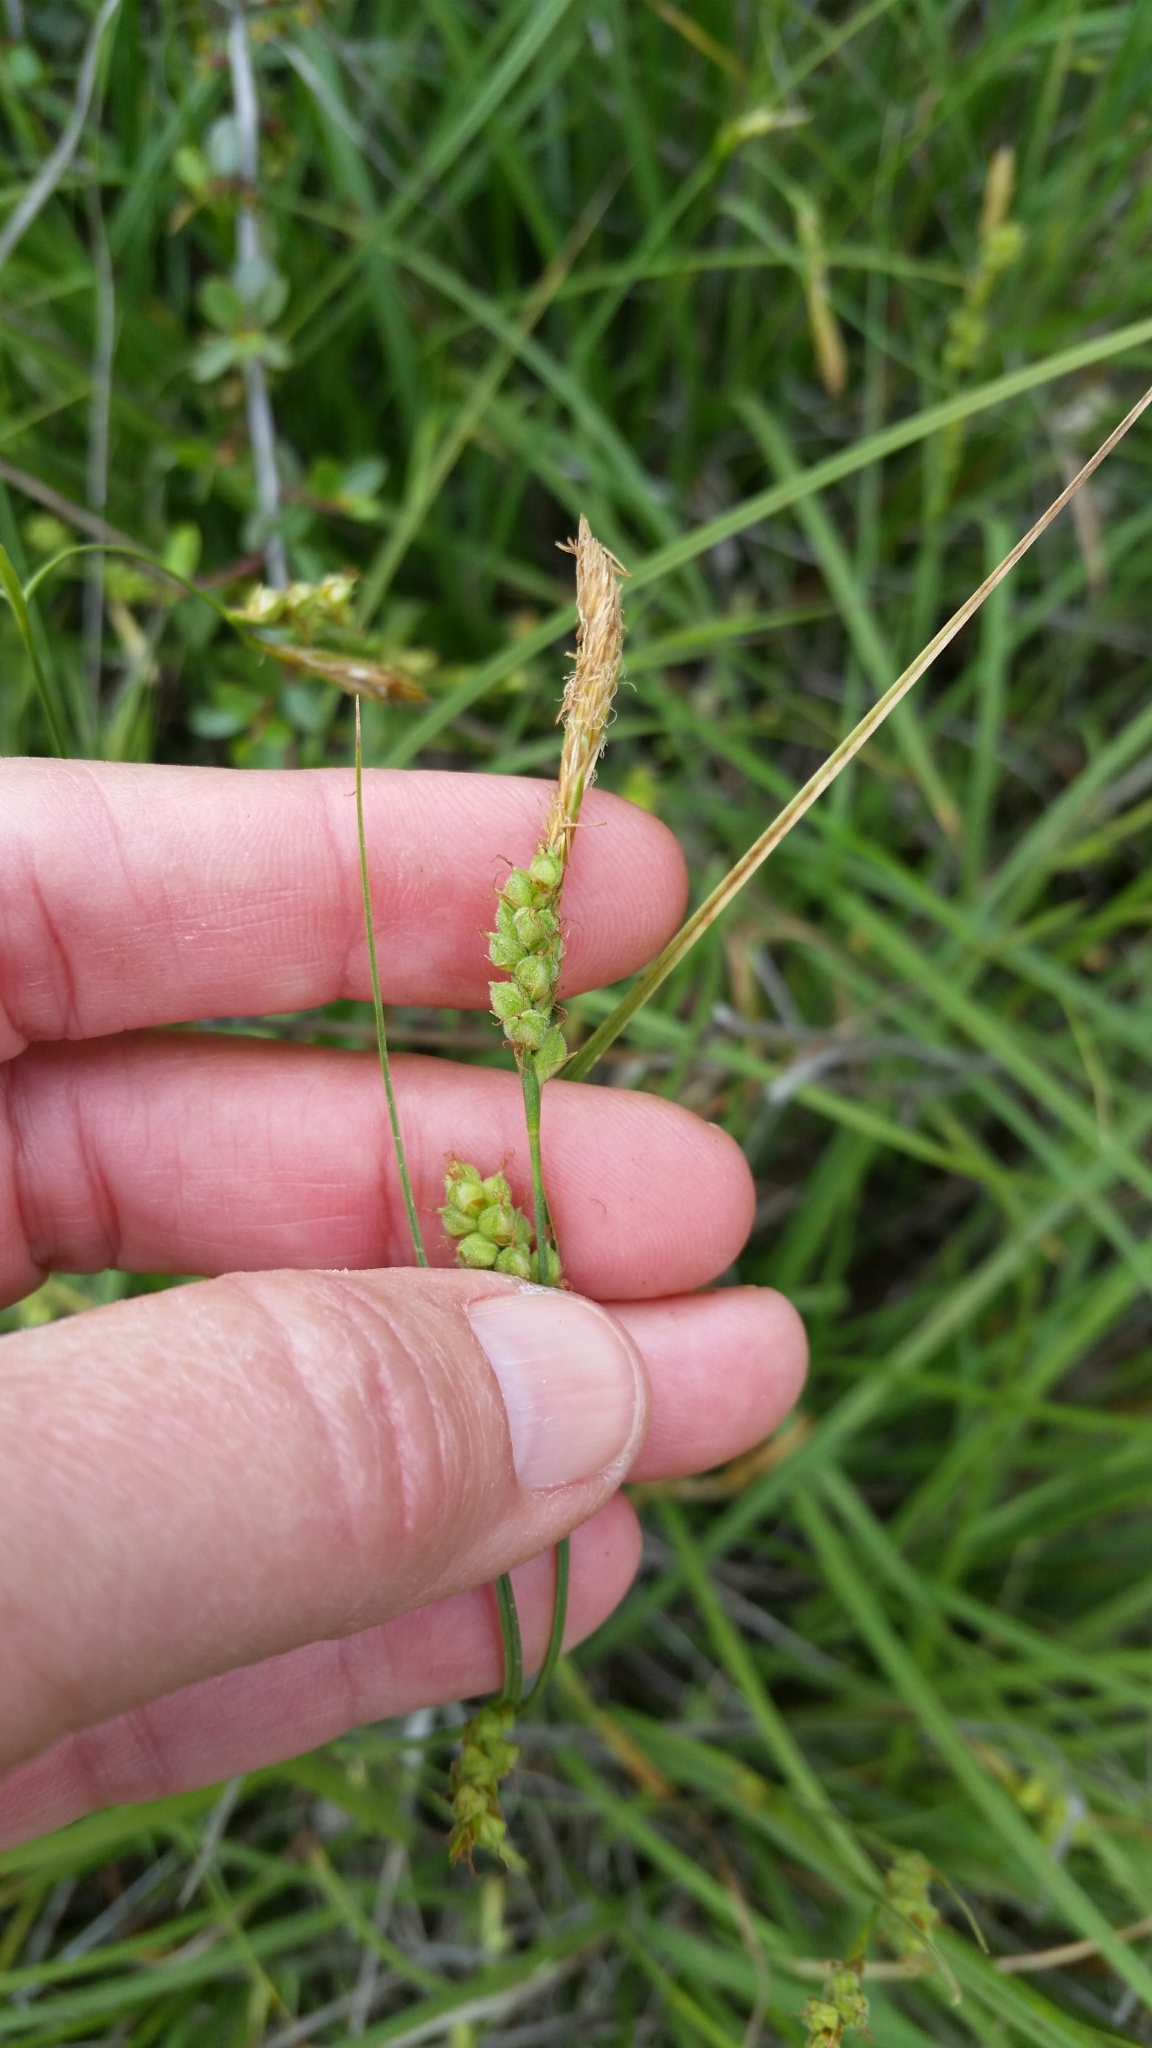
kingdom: Plantae
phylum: Tracheophyta
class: Liliopsida
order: Poales
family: Cyperaceae
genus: Carex
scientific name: Carex triquetra
